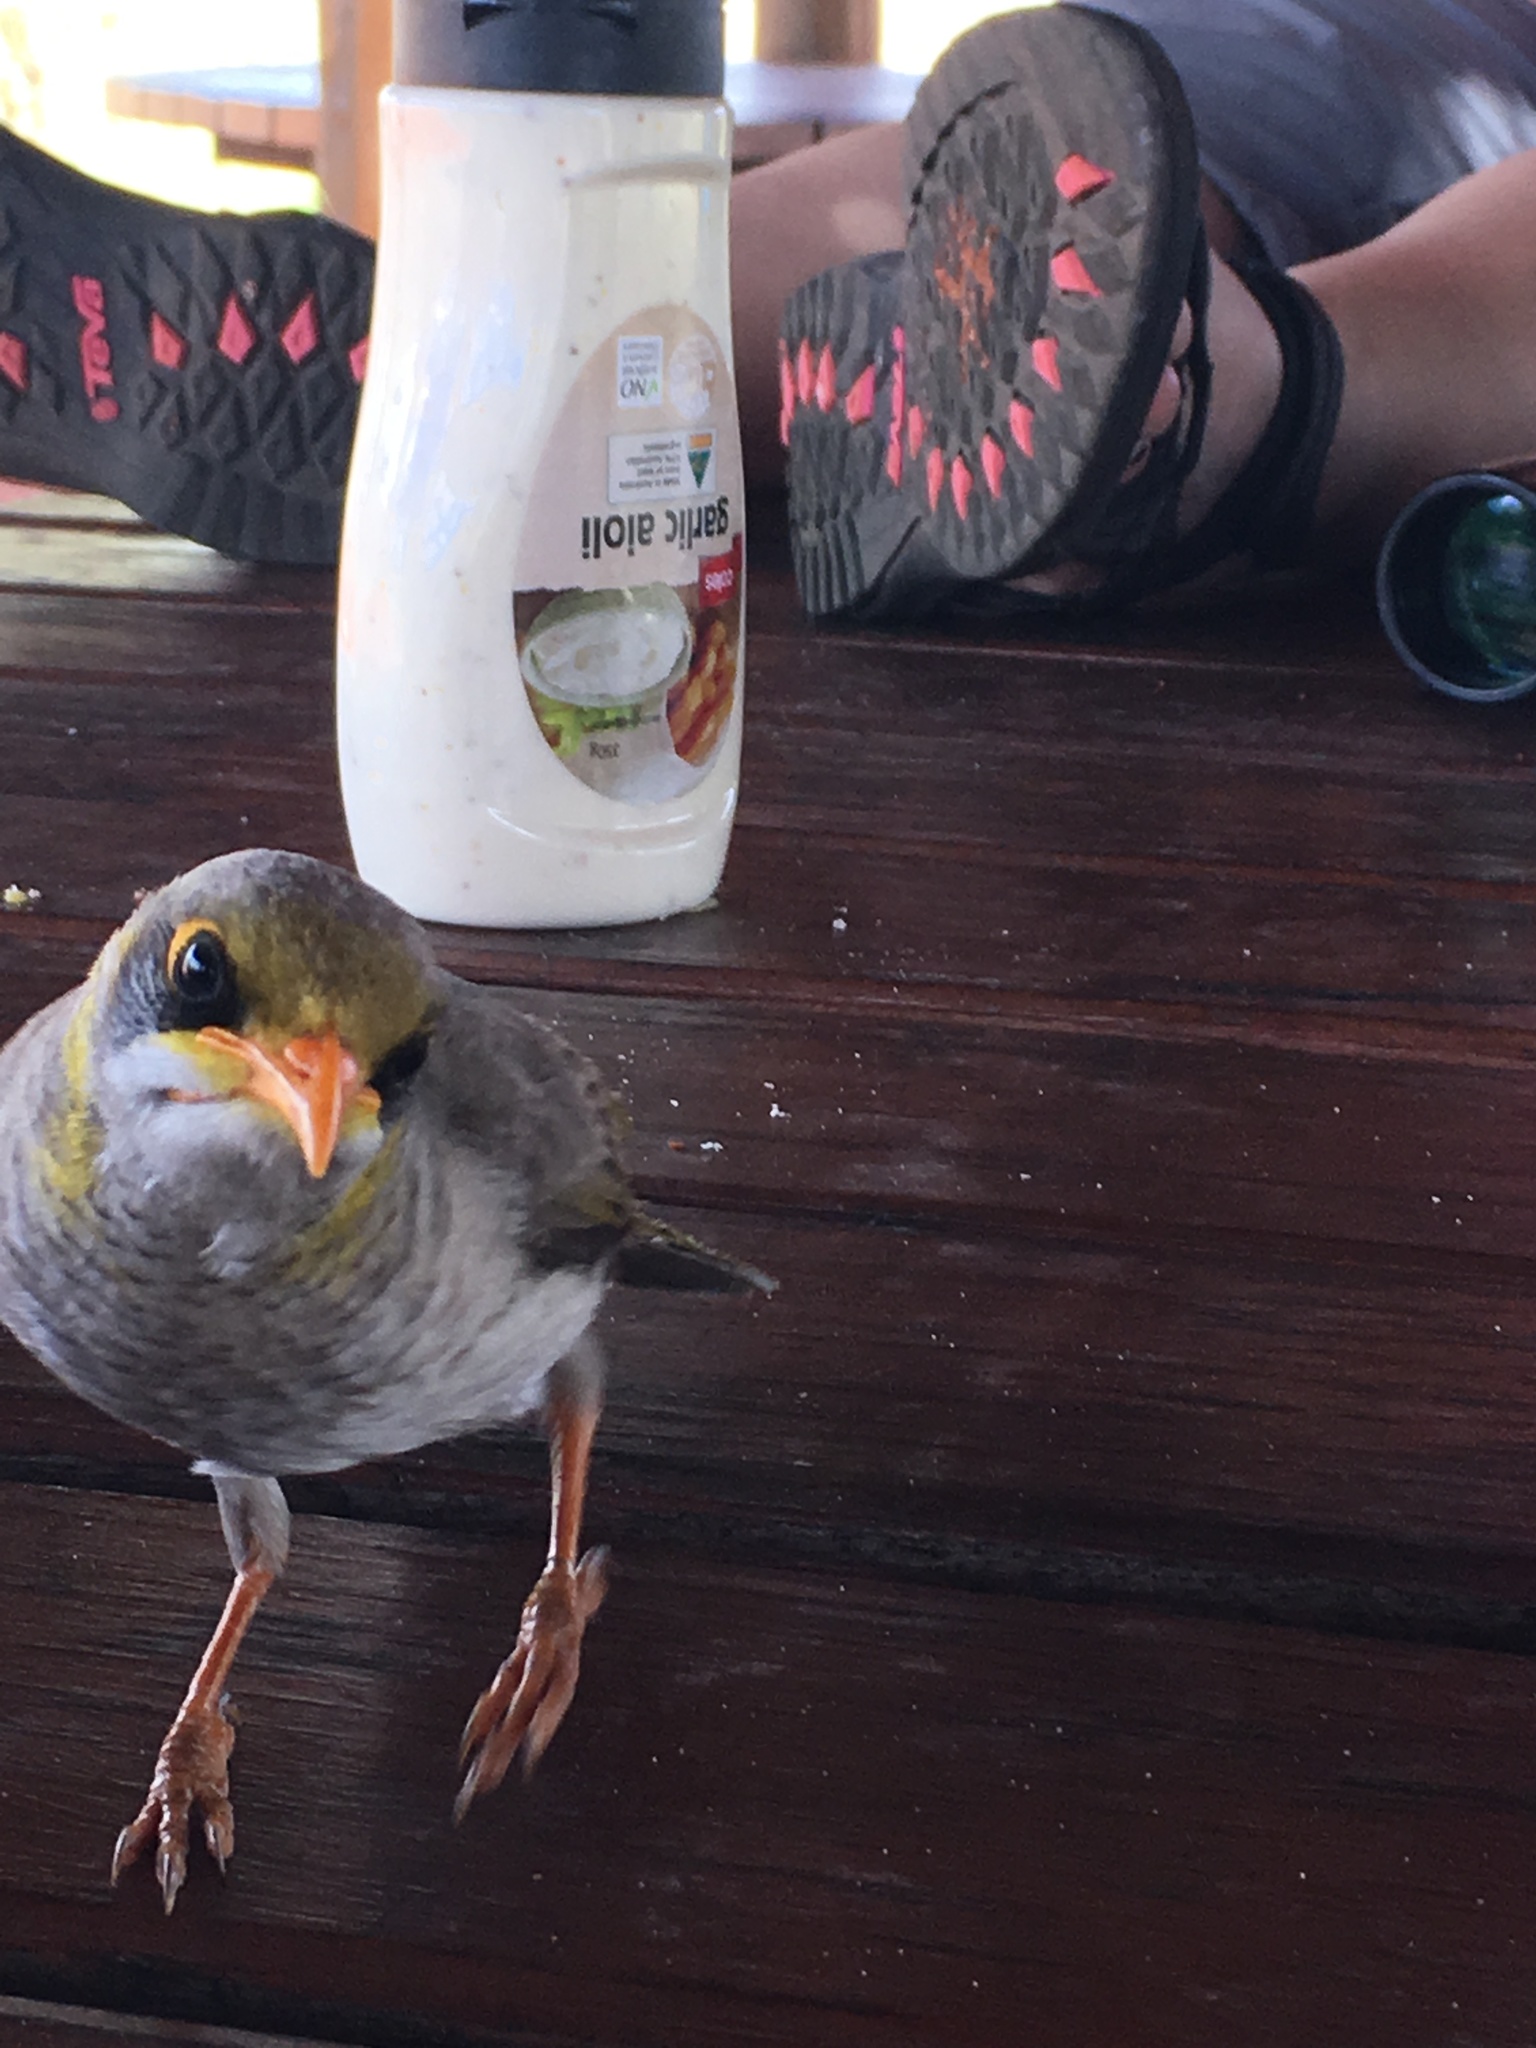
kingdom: Animalia
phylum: Chordata
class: Aves
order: Passeriformes
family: Meliphagidae
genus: Manorina
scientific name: Manorina flavigula
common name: Yellow-throated miner
